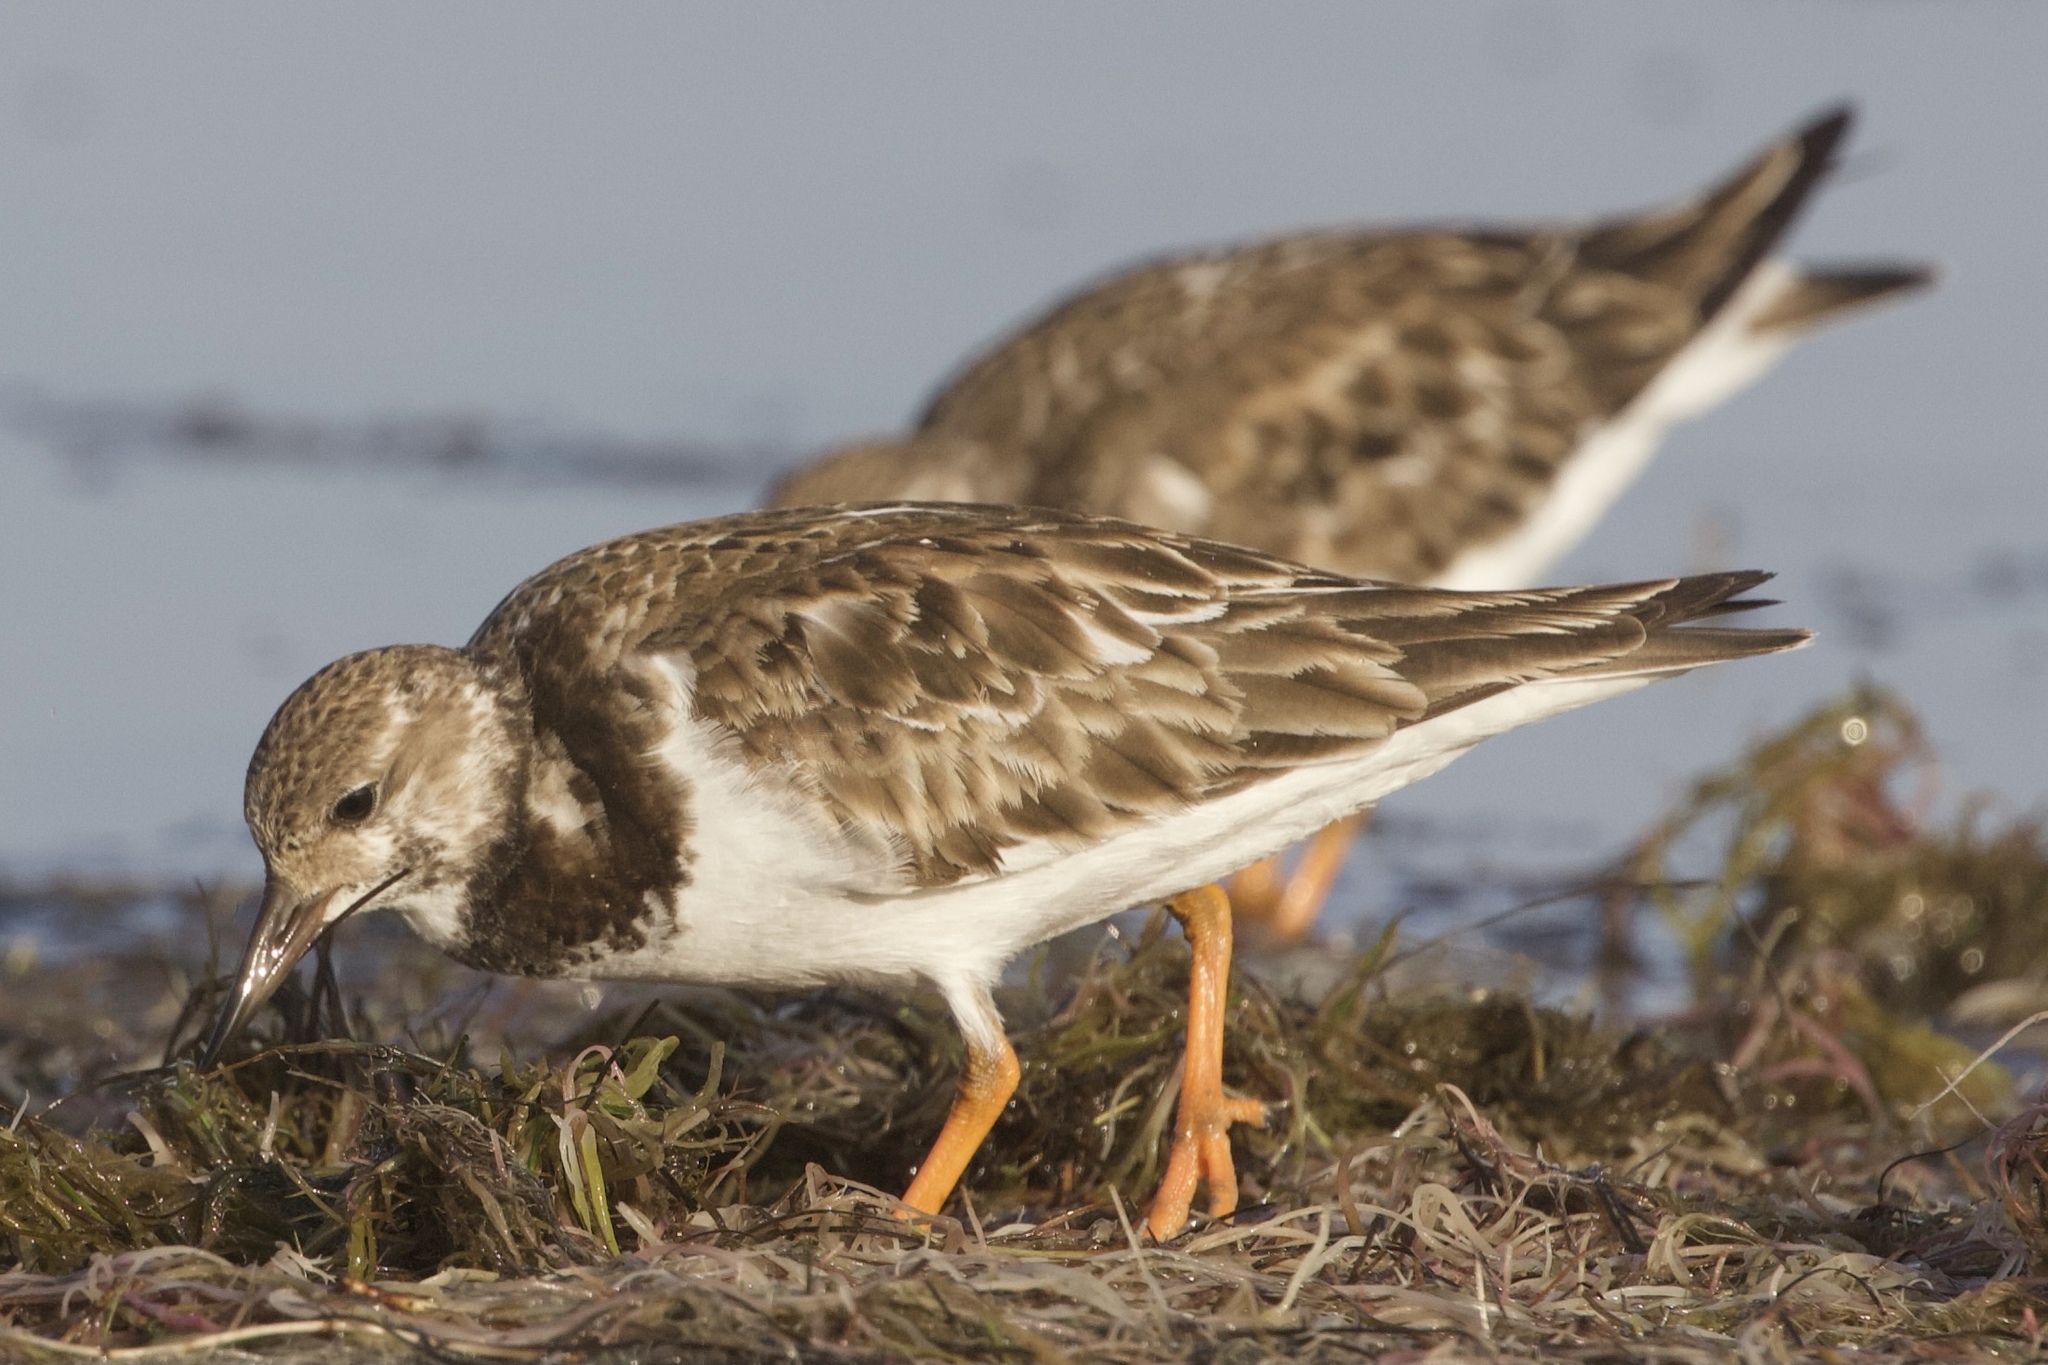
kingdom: Animalia
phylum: Chordata
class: Aves
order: Charadriiformes
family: Scolopacidae
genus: Arenaria
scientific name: Arenaria interpres
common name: Ruddy turnstone
